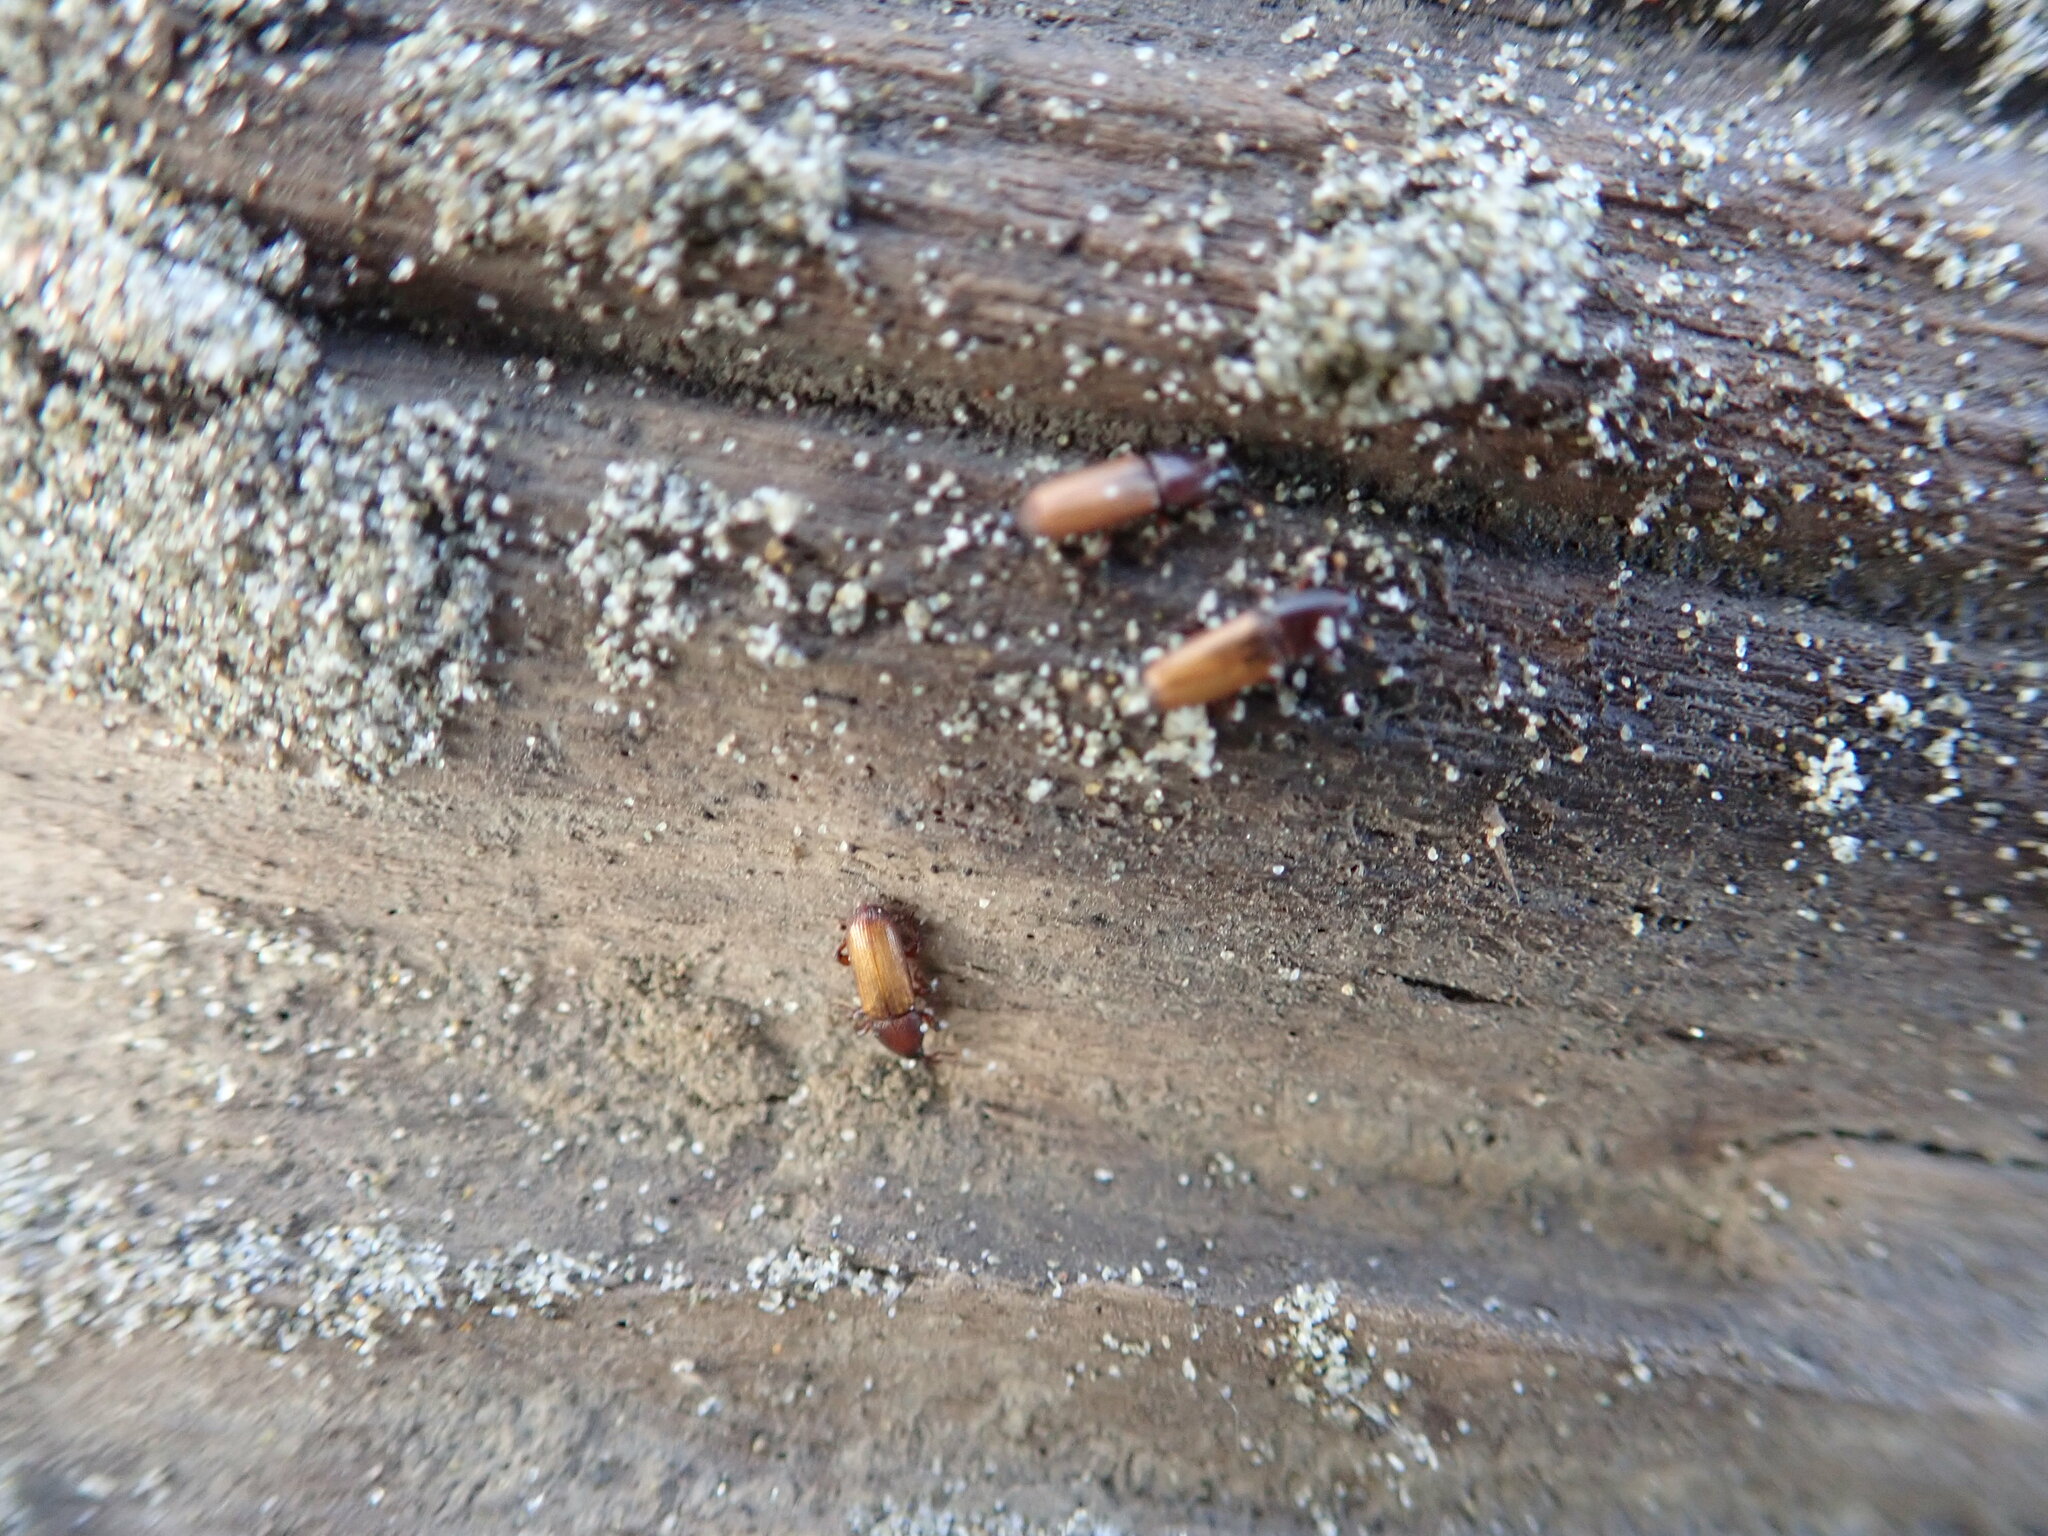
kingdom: Animalia
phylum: Arthropoda
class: Insecta
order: Coleoptera
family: Curculionidae
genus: Mesites
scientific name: Mesites pallidipennis
